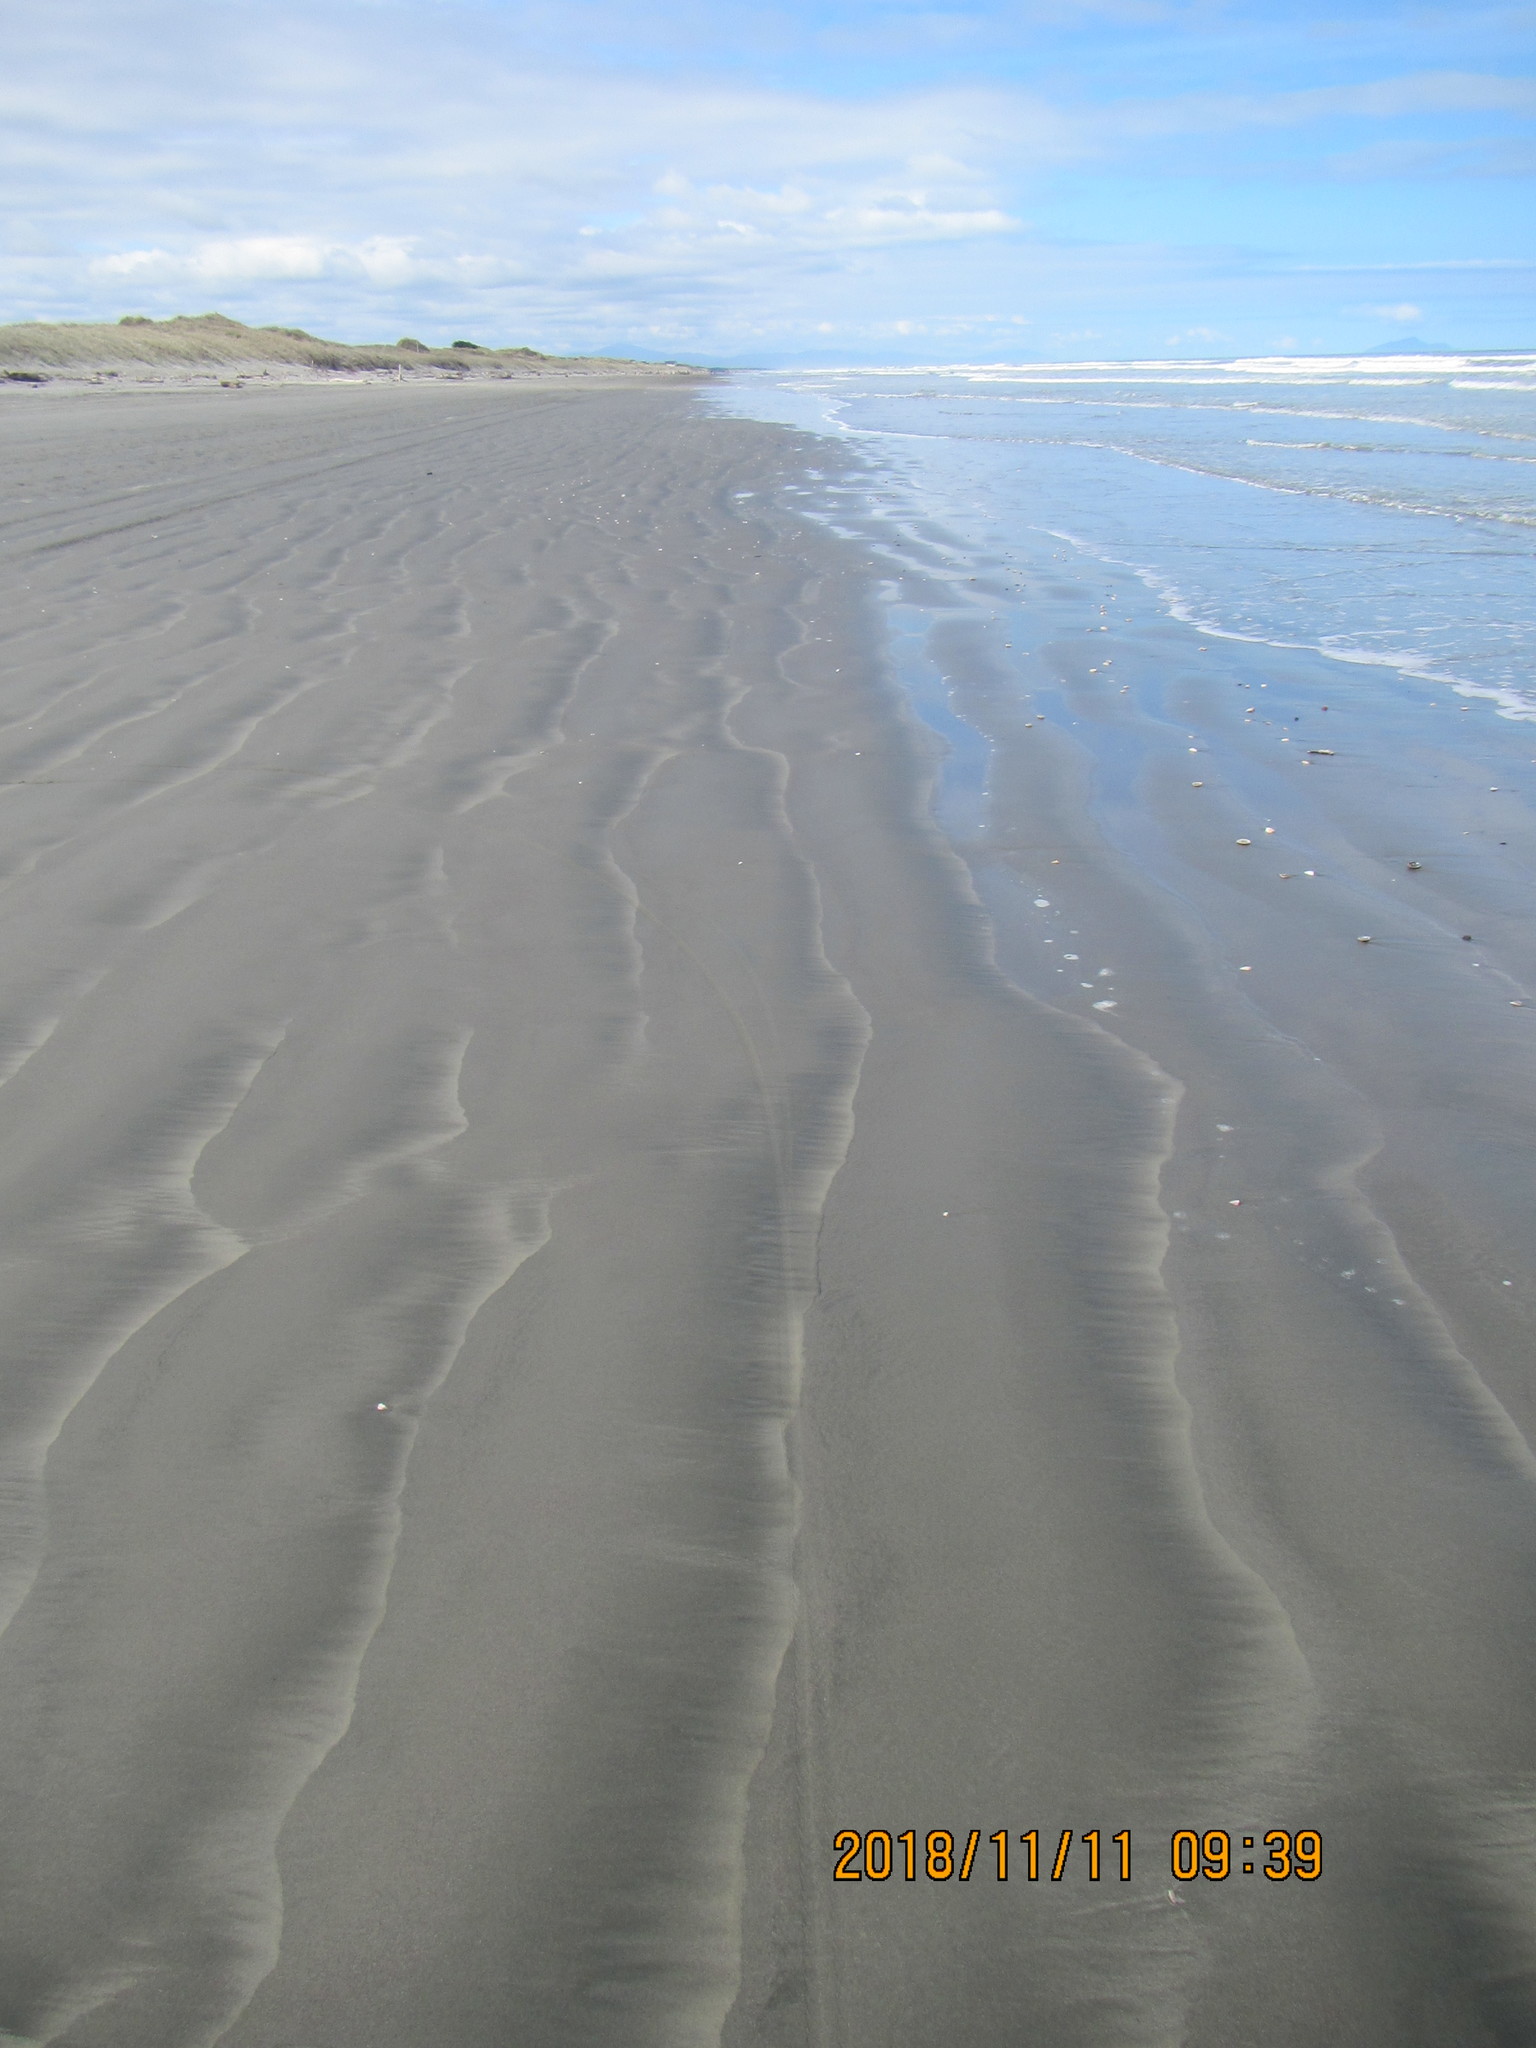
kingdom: Animalia
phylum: Arthropoda
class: Malacostraca
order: Decapoda
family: Diogenidae
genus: Areopaguristes
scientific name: Areopaguristes pilosus
